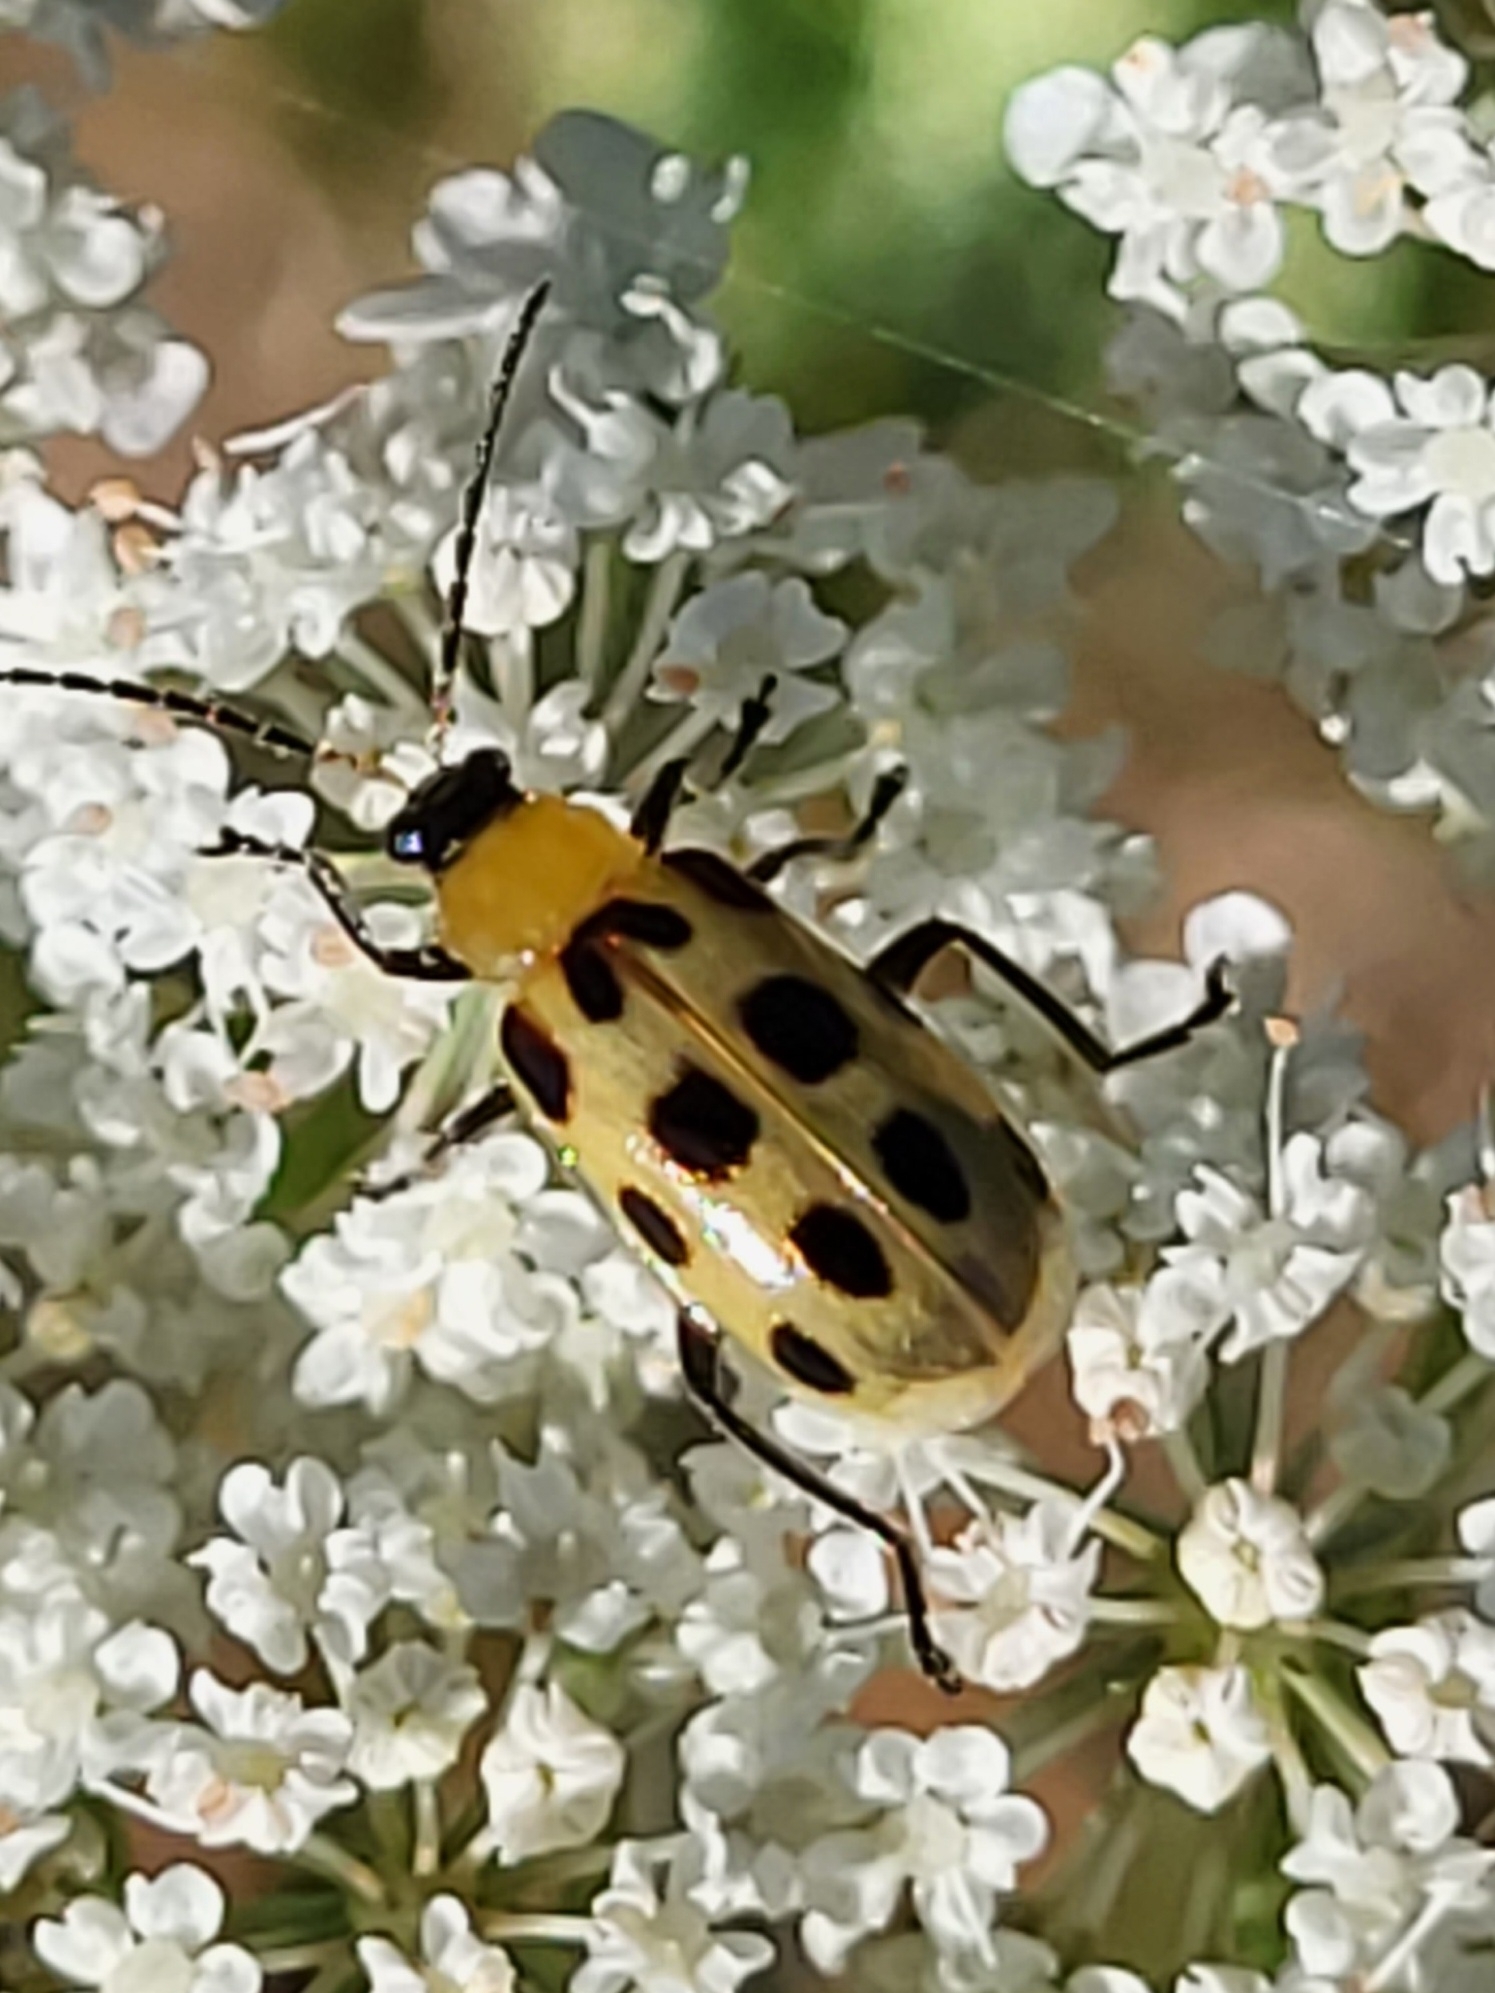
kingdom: Animalia
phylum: Arthropoda
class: Insecta
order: Coleoptera
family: Chrysomelidae
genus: Diabrotica
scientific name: Diabrotica undecimpunctata
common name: Spotted cucumber beetle
